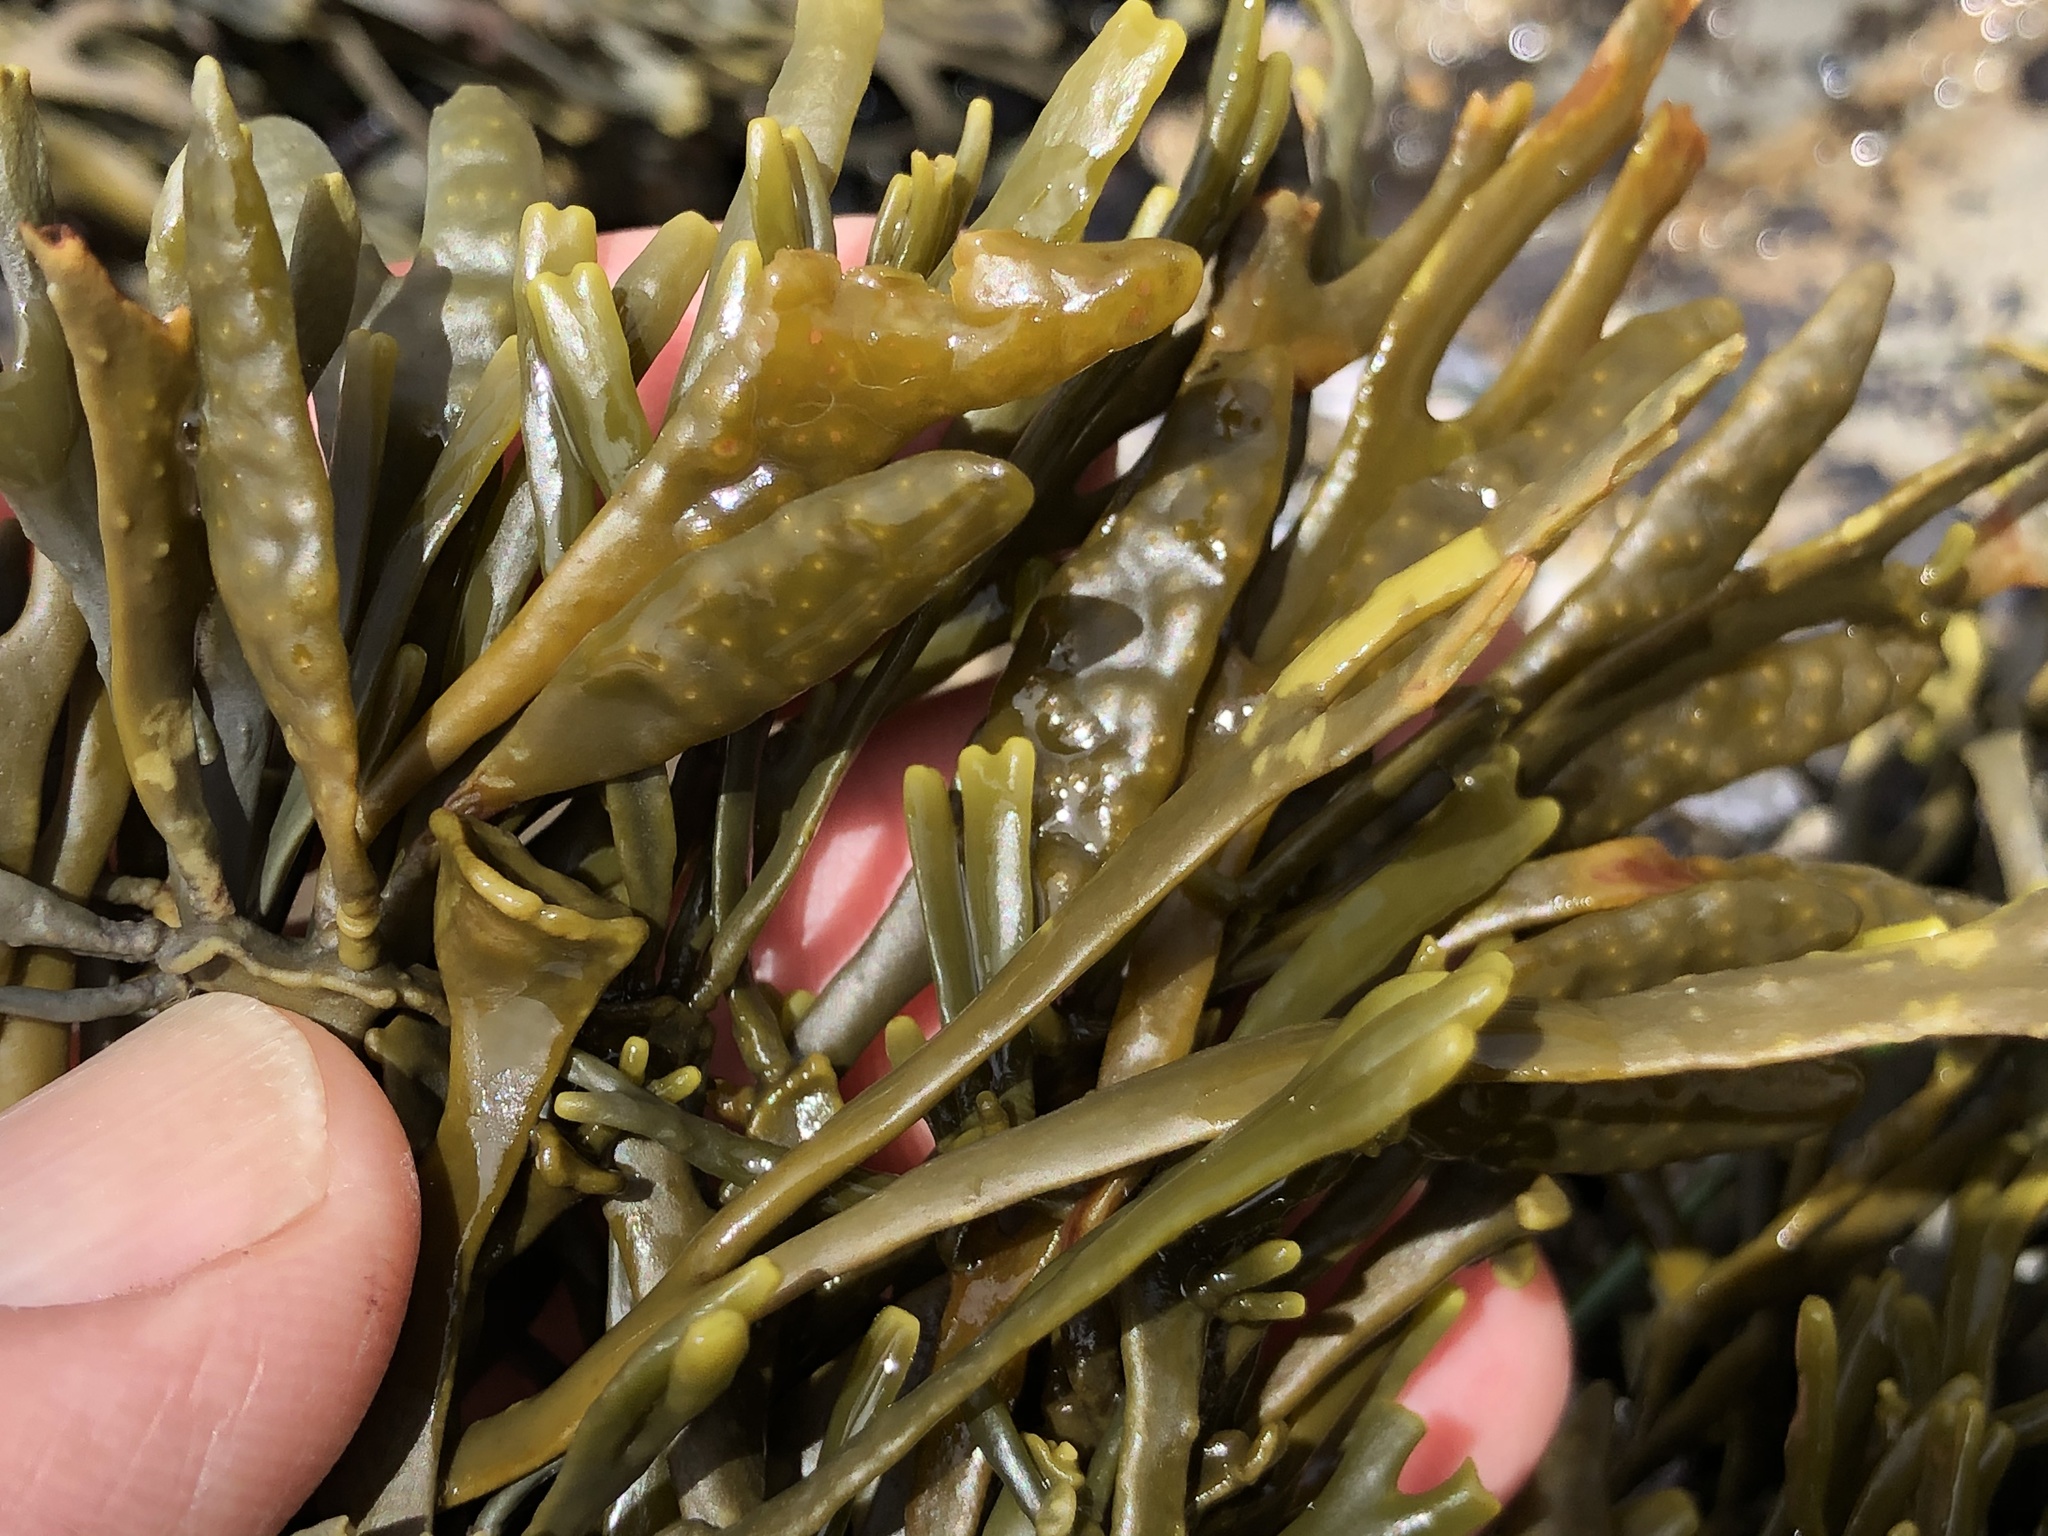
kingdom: Chromista
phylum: Ochrophyta
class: Phaeophyceae
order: Fucales
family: Fucaceae
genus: Silvetia
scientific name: Silvetia
